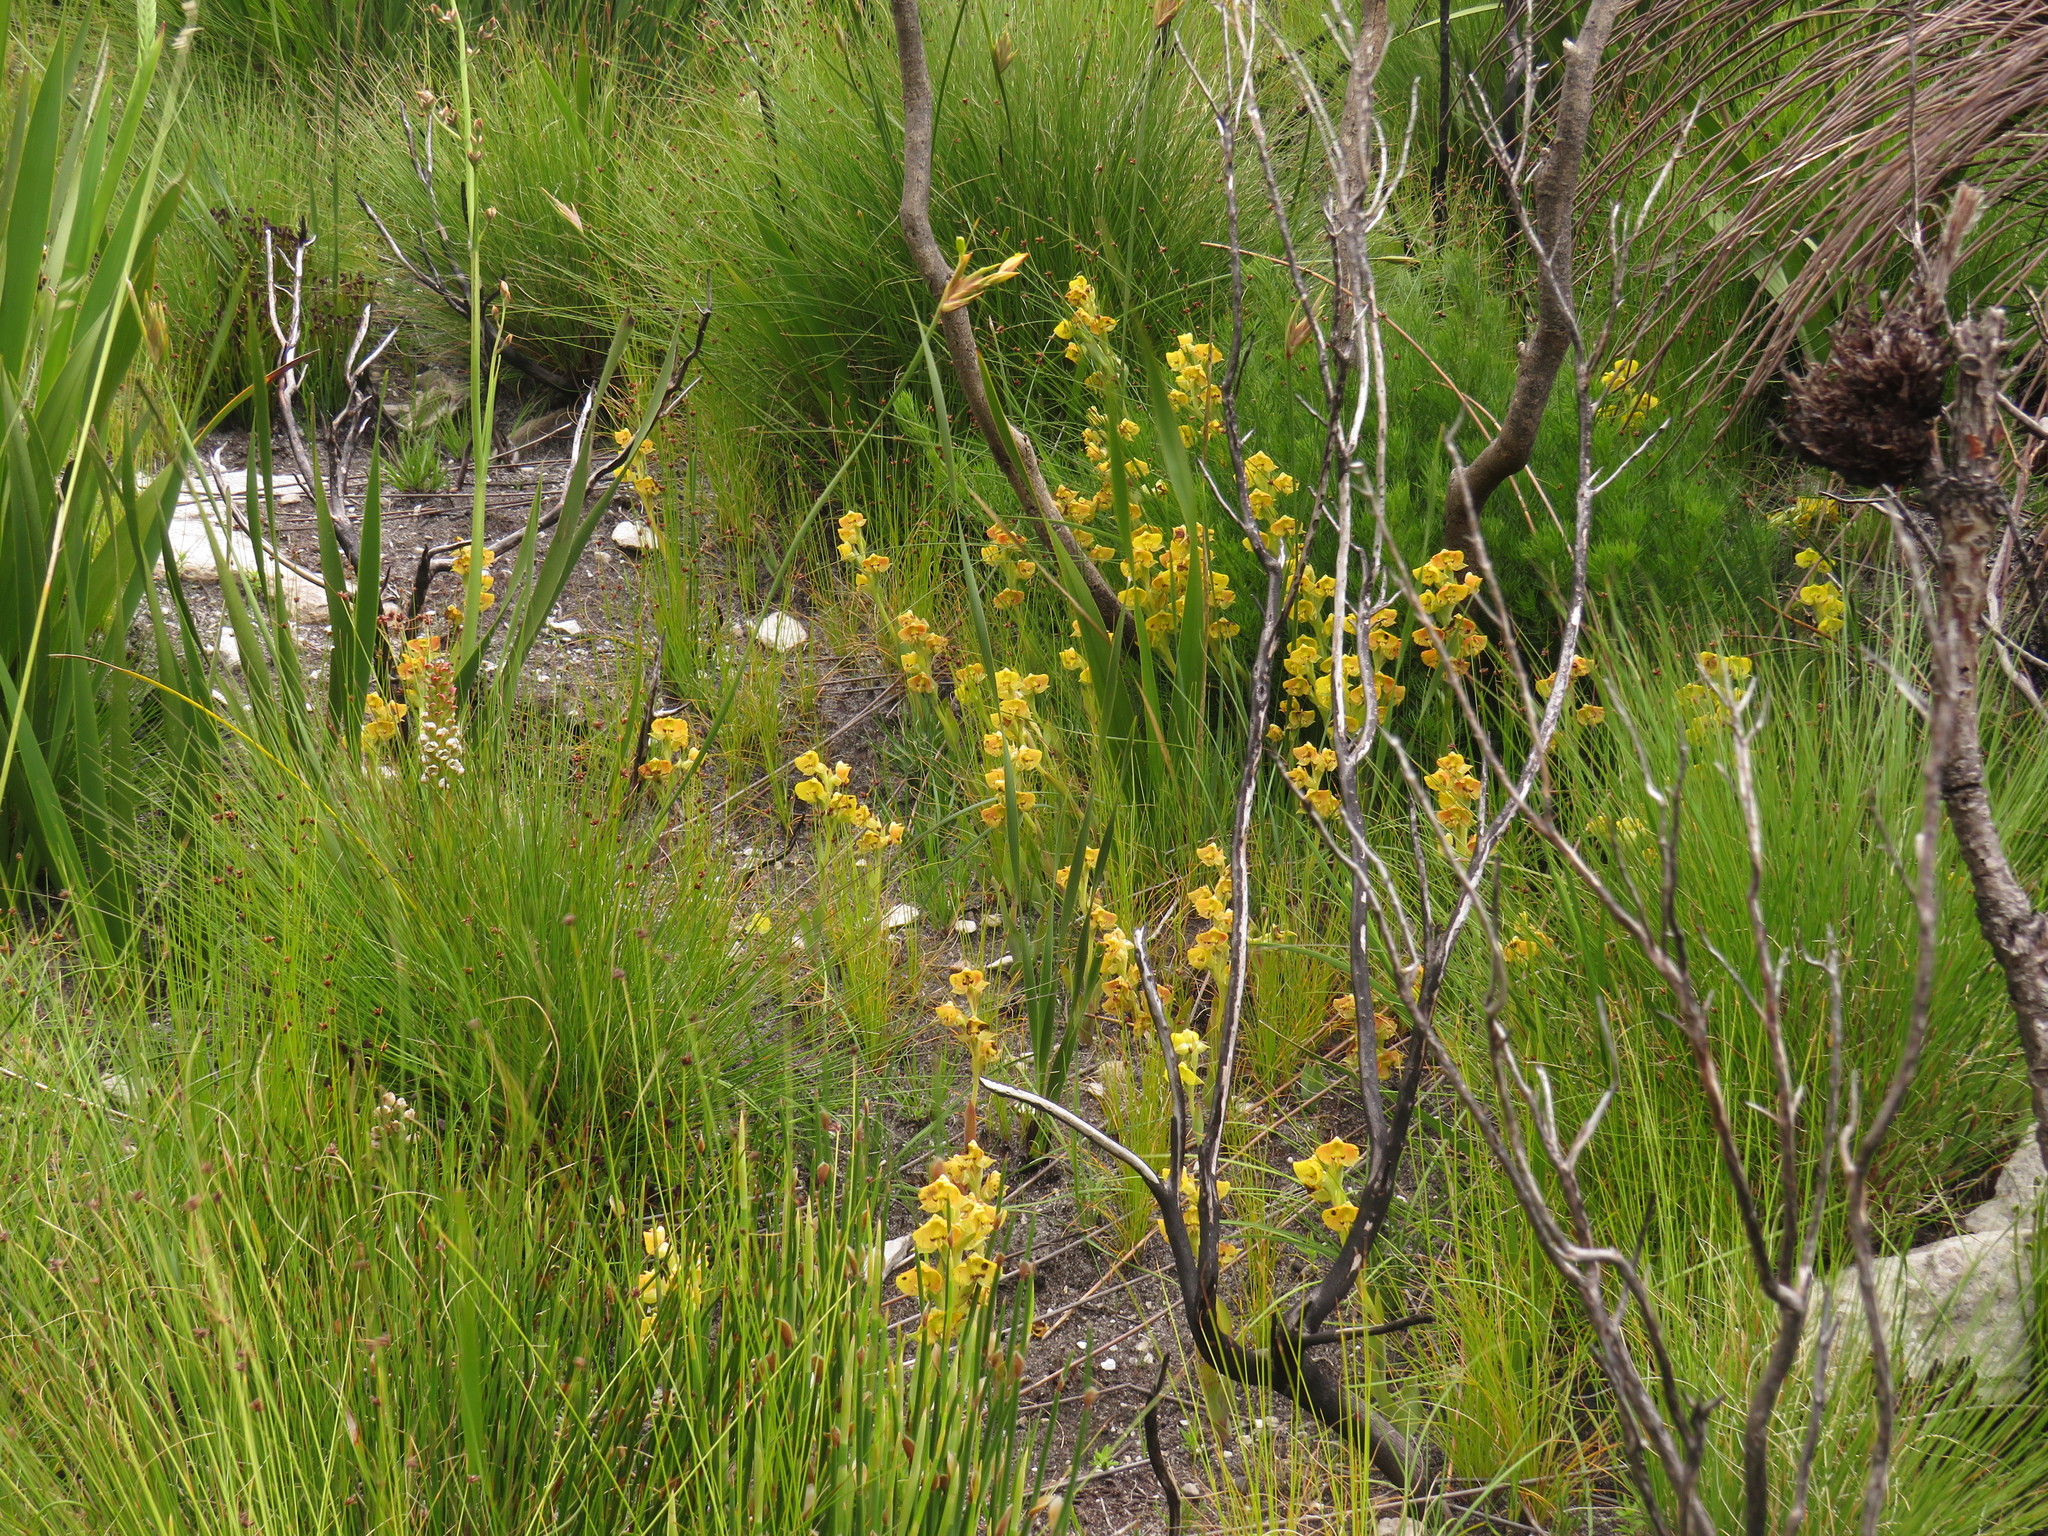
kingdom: Plantae
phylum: Tracheophyta
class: Liliopsida
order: Asparagales
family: Orchidaceae
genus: Pterygodium
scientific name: Pterygodium acutifolium
